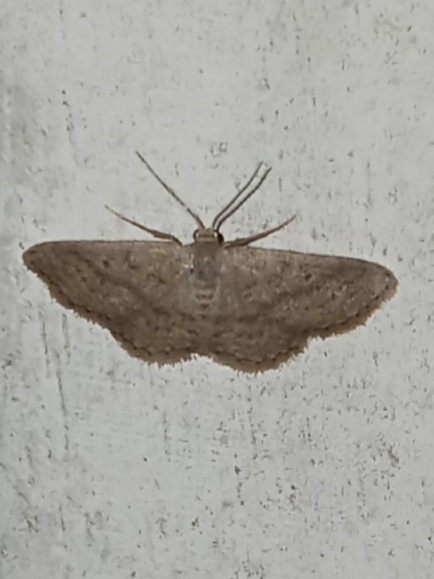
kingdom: Animalia
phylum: Arthropoda
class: Insecta
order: Lepidoptera
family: Geometridae
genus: Lobocleta
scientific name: Lobocleta ossularia
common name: Drab brown wave
